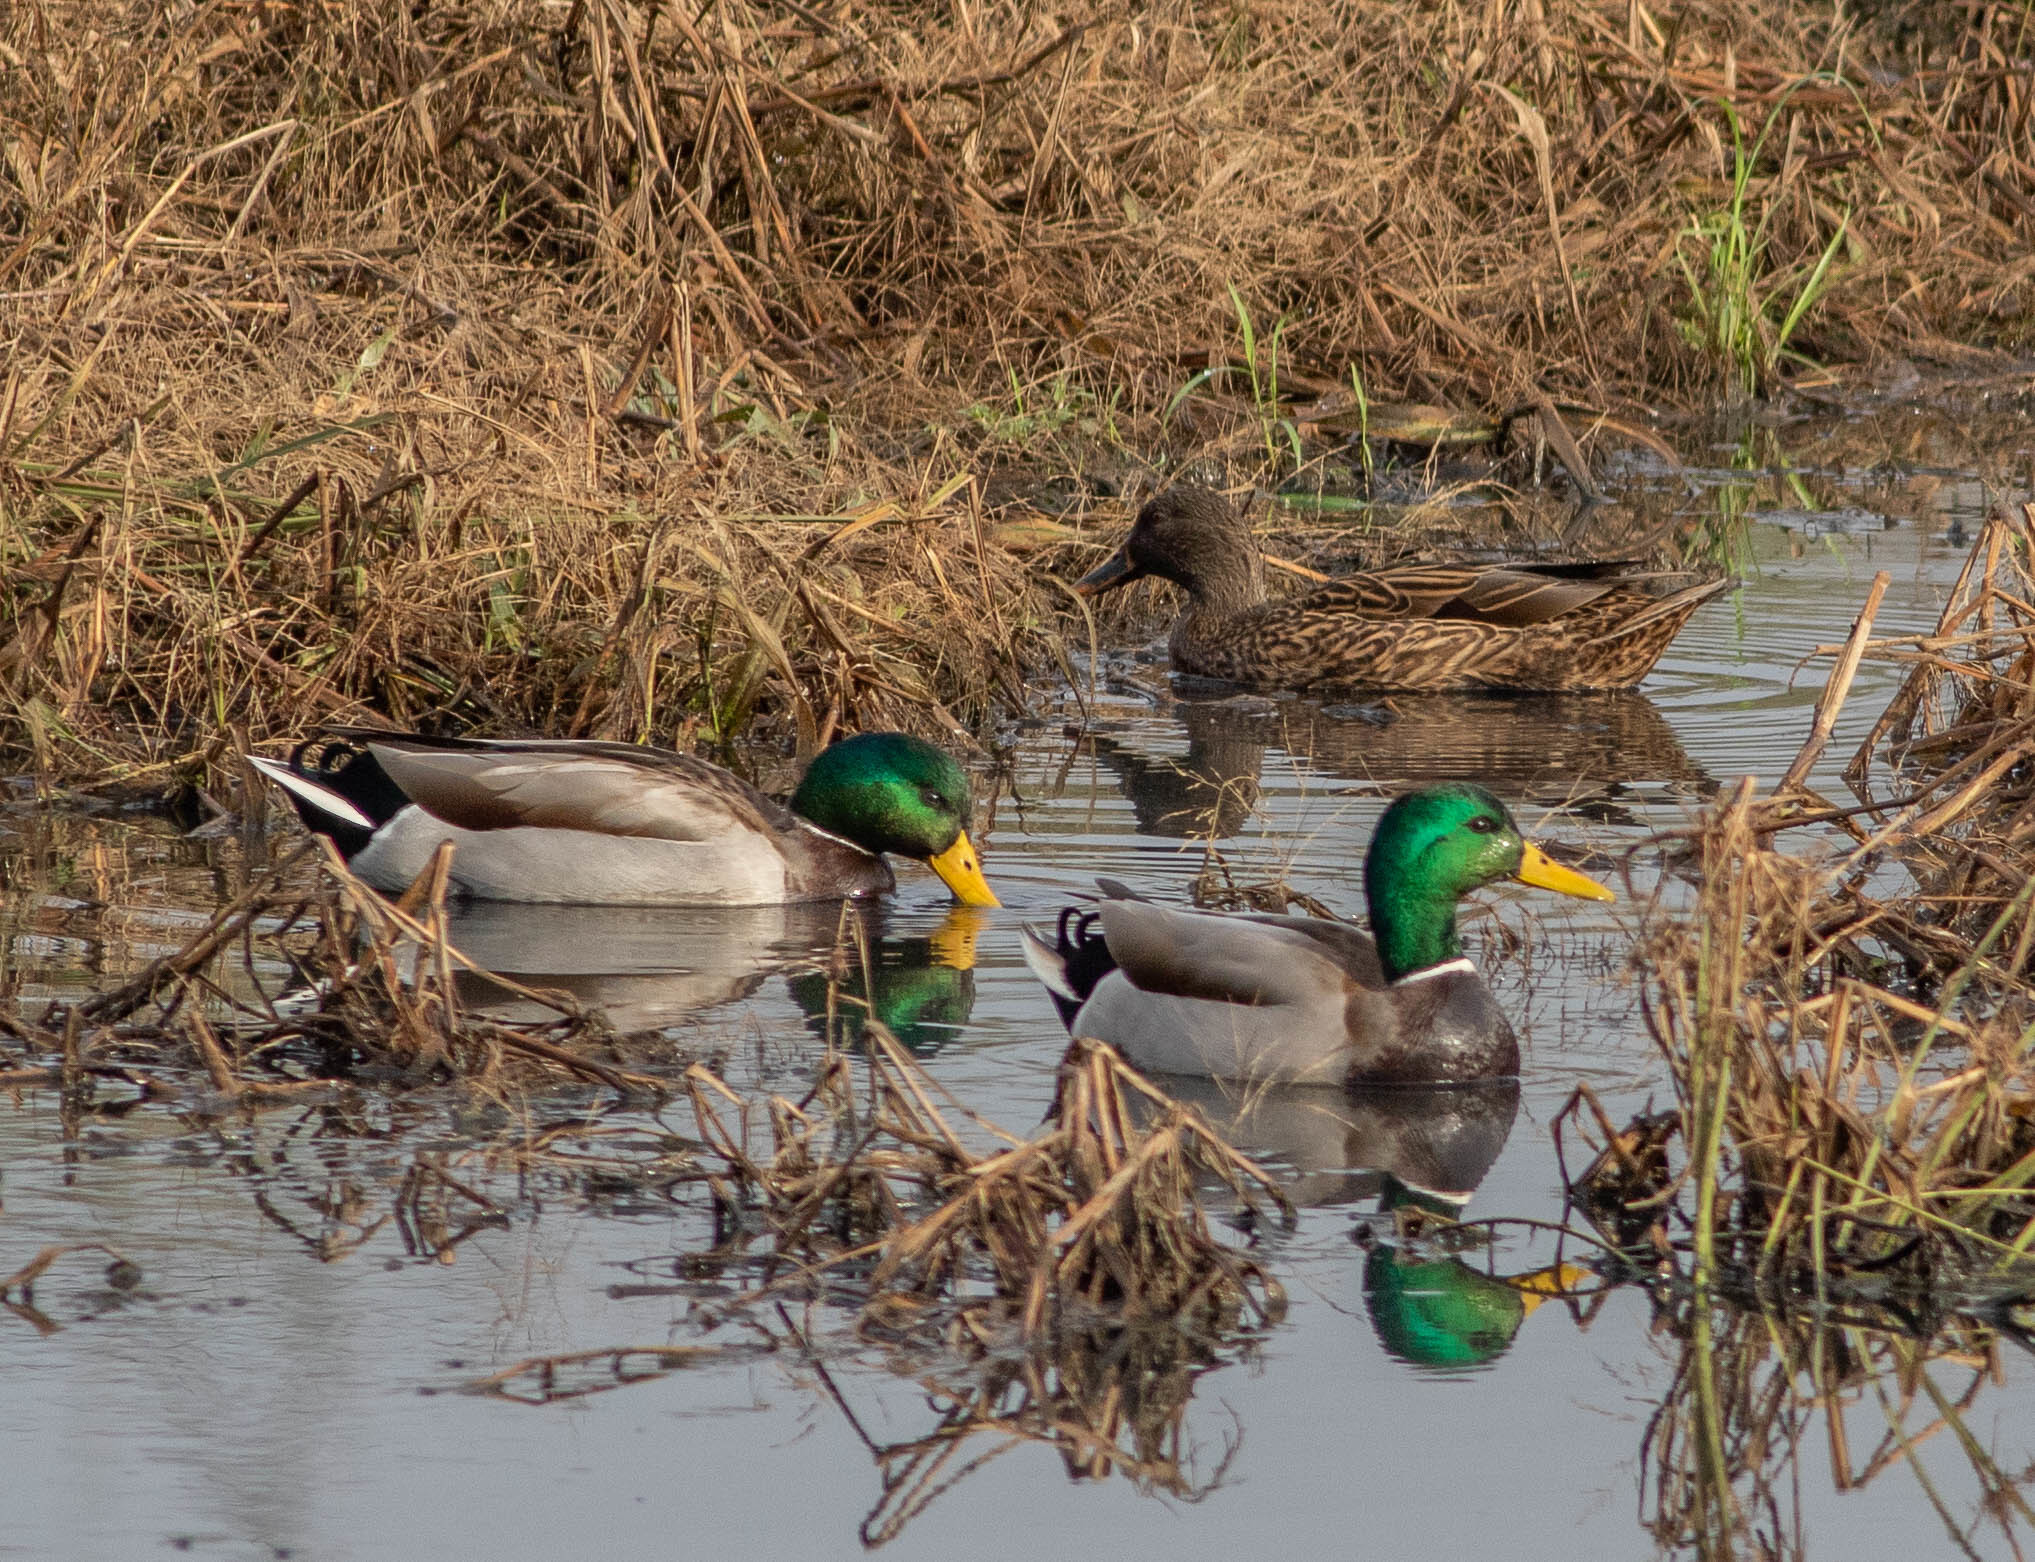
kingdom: Animalia
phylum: Chordata
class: Aves
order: Anseriformes
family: Anatidae
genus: Anas
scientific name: Anas platyrhynchos
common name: Mallard
